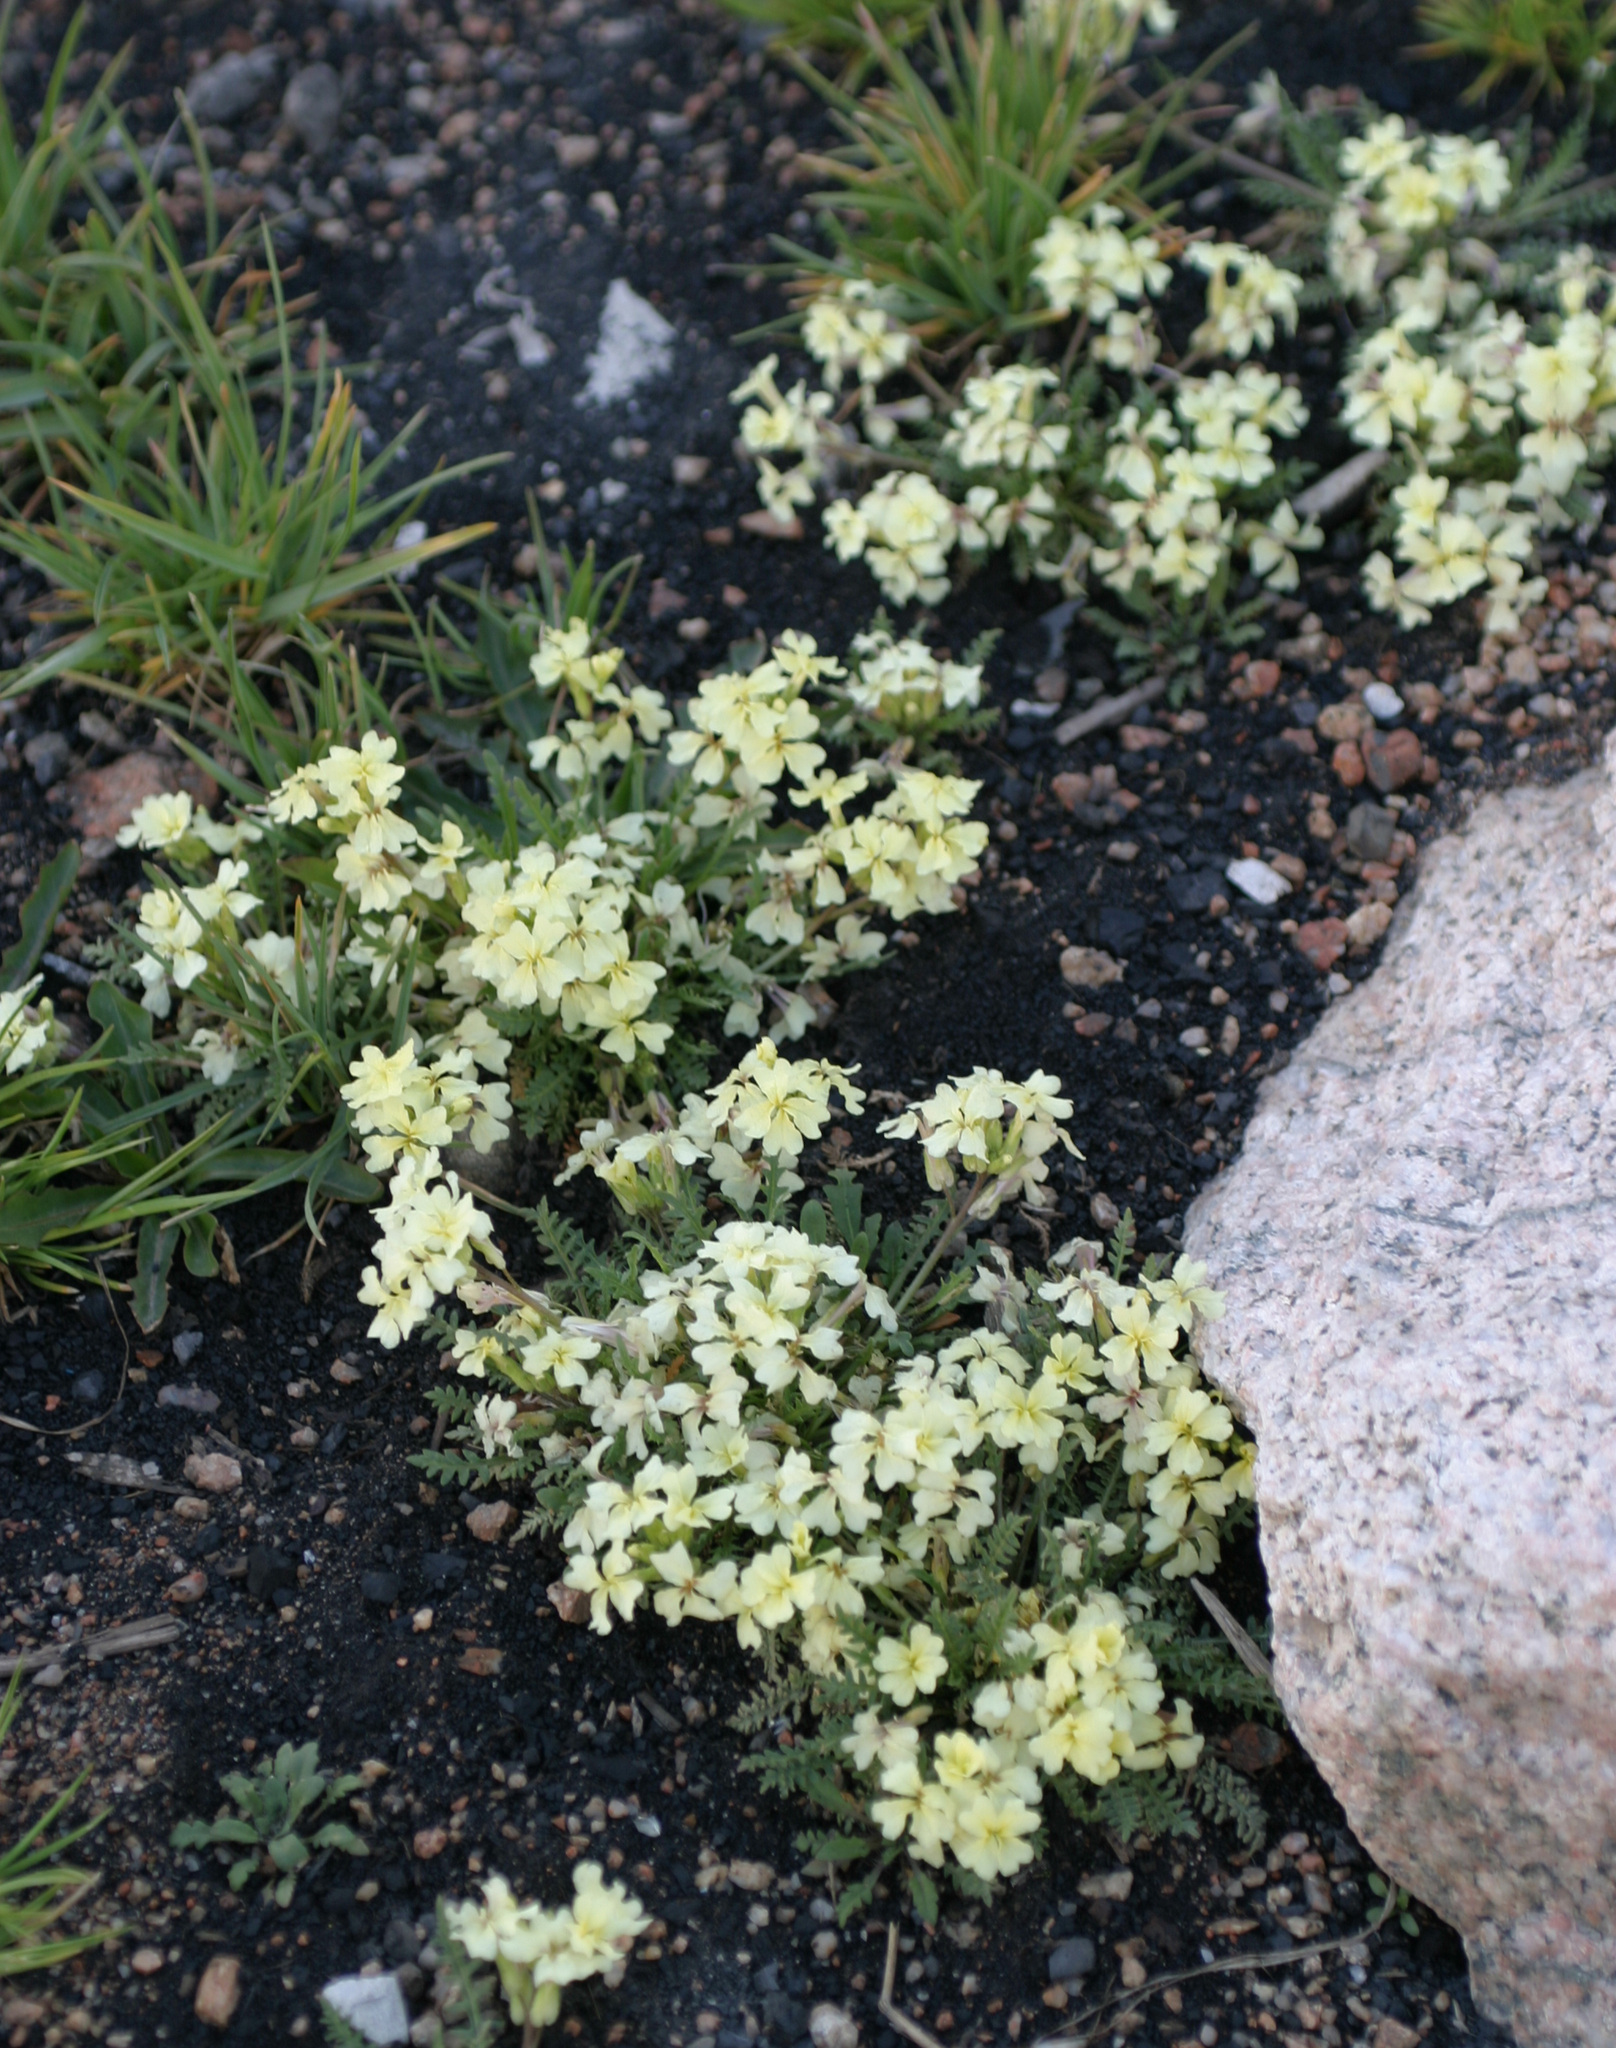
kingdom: Plantae
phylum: Tracheophyta
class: Magnoliopsida
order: Brassicales
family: Brassicaceae
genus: Chorispora
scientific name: Chorispora macropoda
